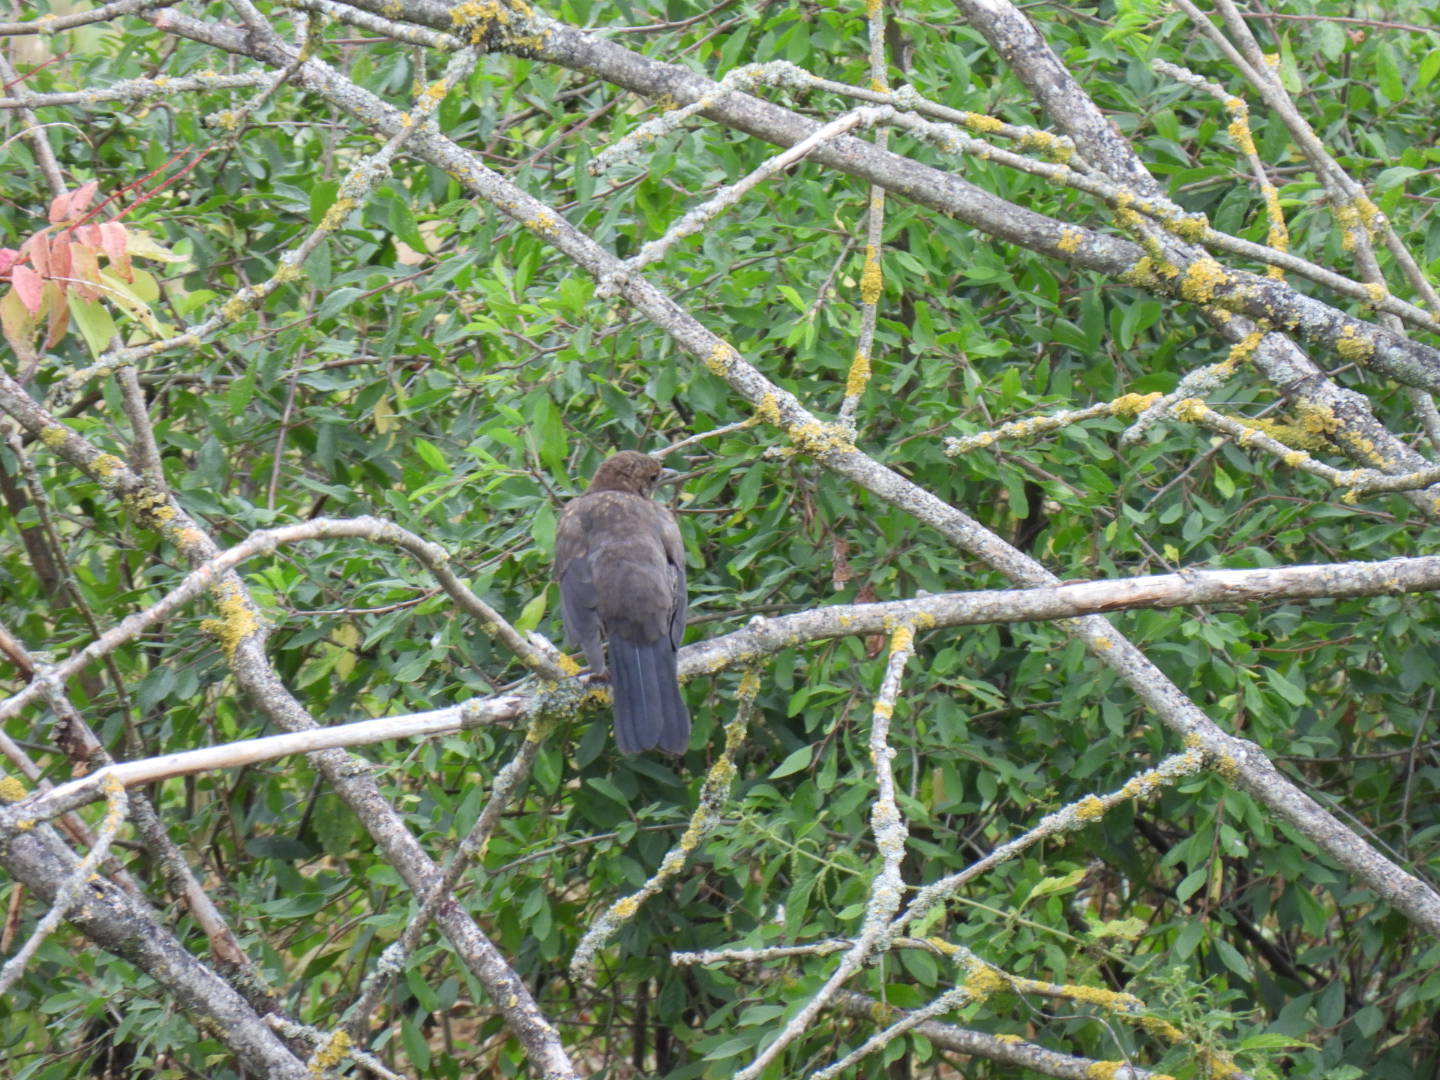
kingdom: Animalia
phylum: Chordata
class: Aves
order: Passeriformes
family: Turdidae
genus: Turdus
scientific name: Turdus merula
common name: Common blackbird
